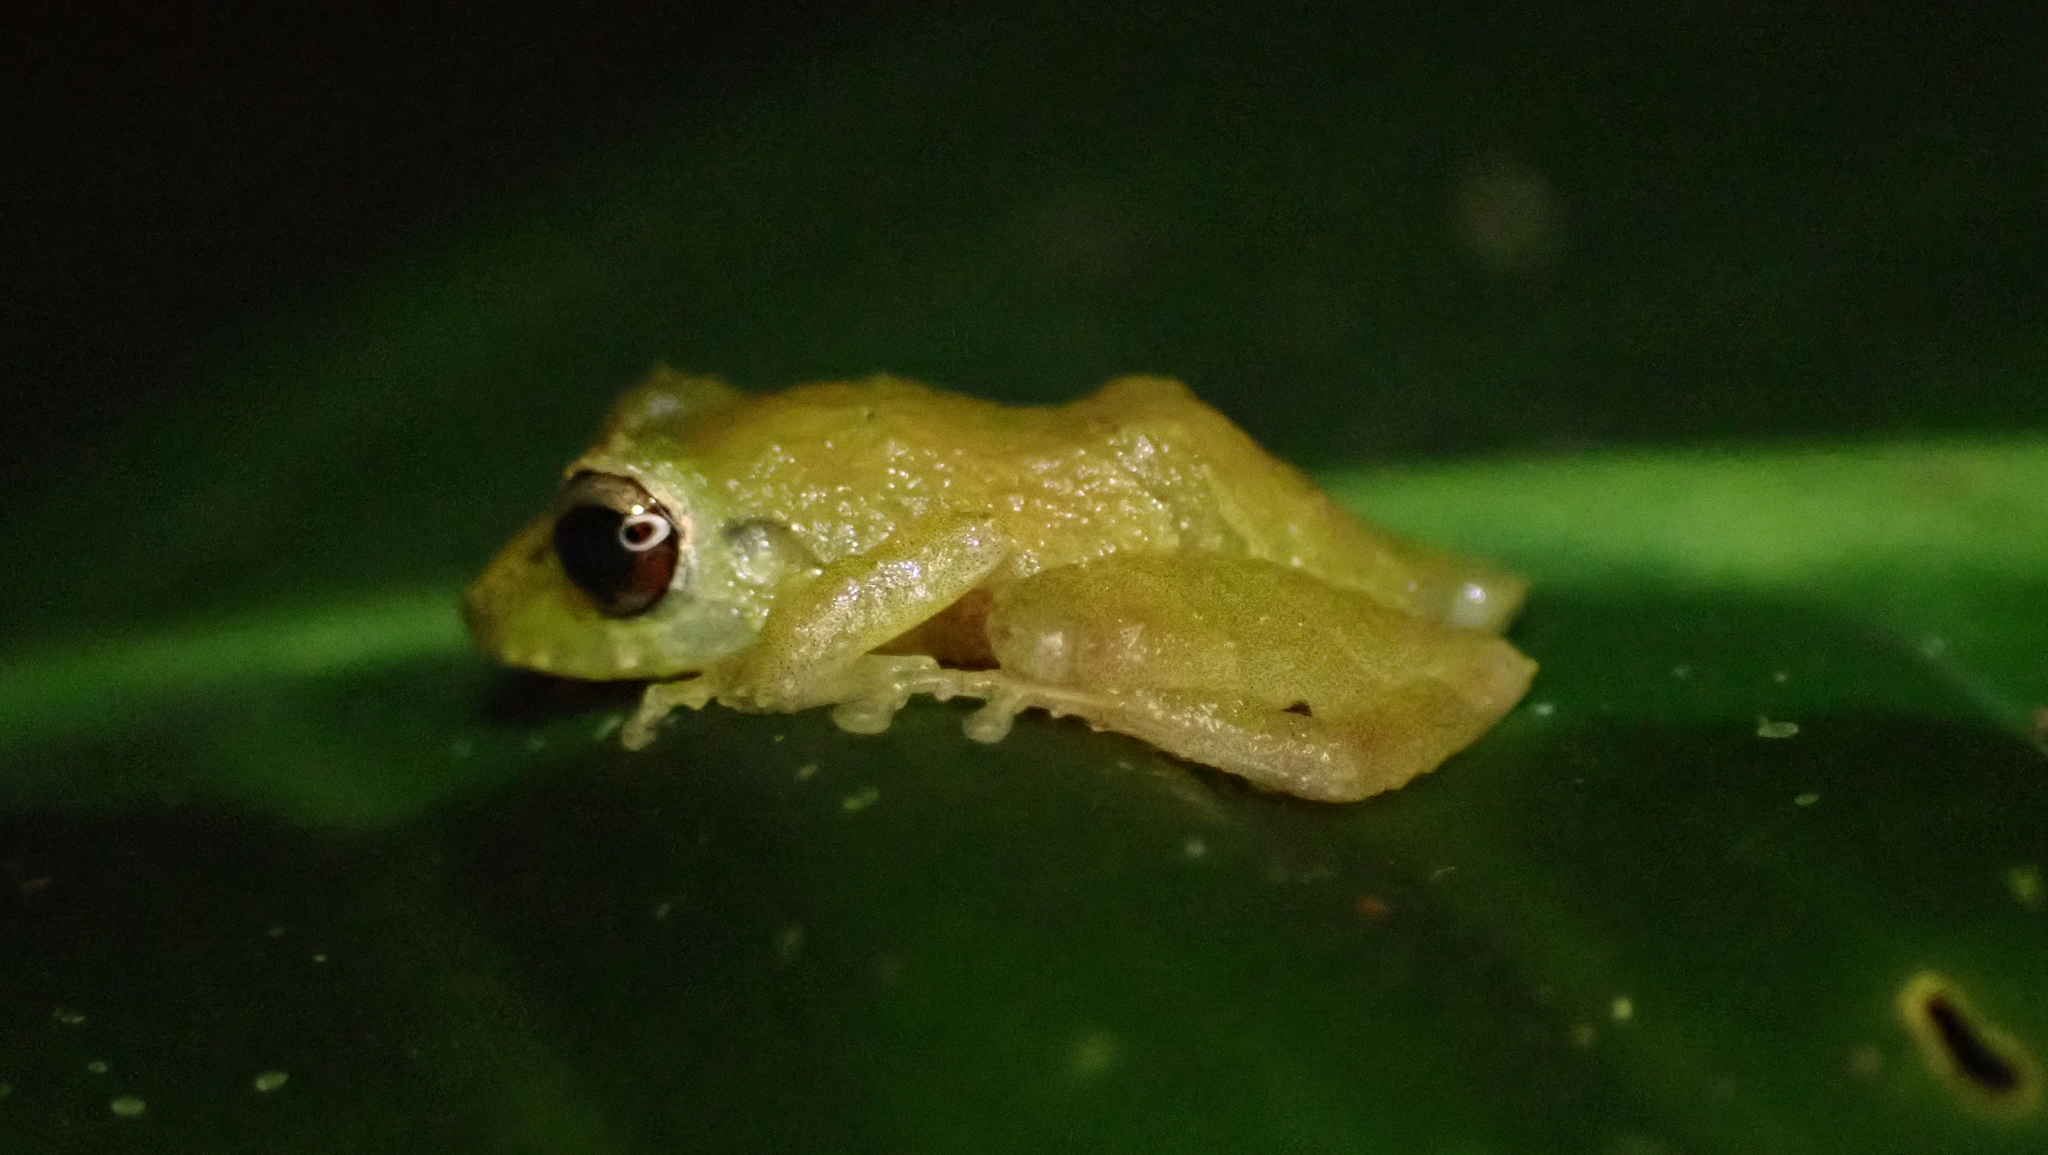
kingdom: Animalia
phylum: Chordata
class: Amphibia
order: Anura
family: Craugastoridae
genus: Pristimantis
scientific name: Pristimantis ridens
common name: Rio san juan robber frog
